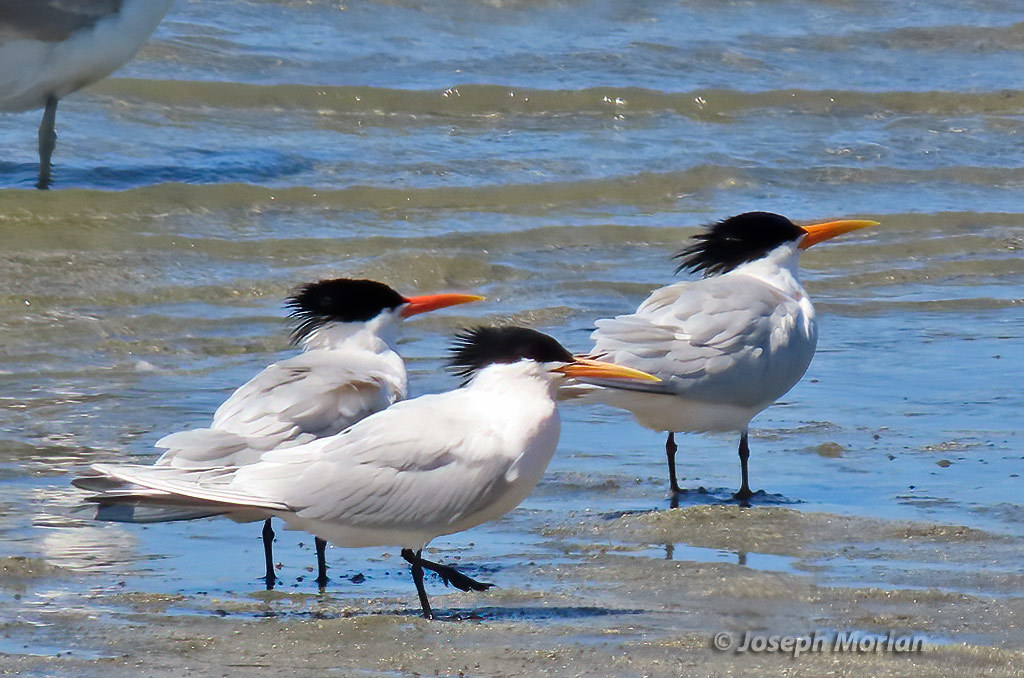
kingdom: Animalia
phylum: Chordata
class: Aves
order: Charadriiformes
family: Laridae
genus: Thalasseus
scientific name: Thalasseus elegans
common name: Elegant tern
